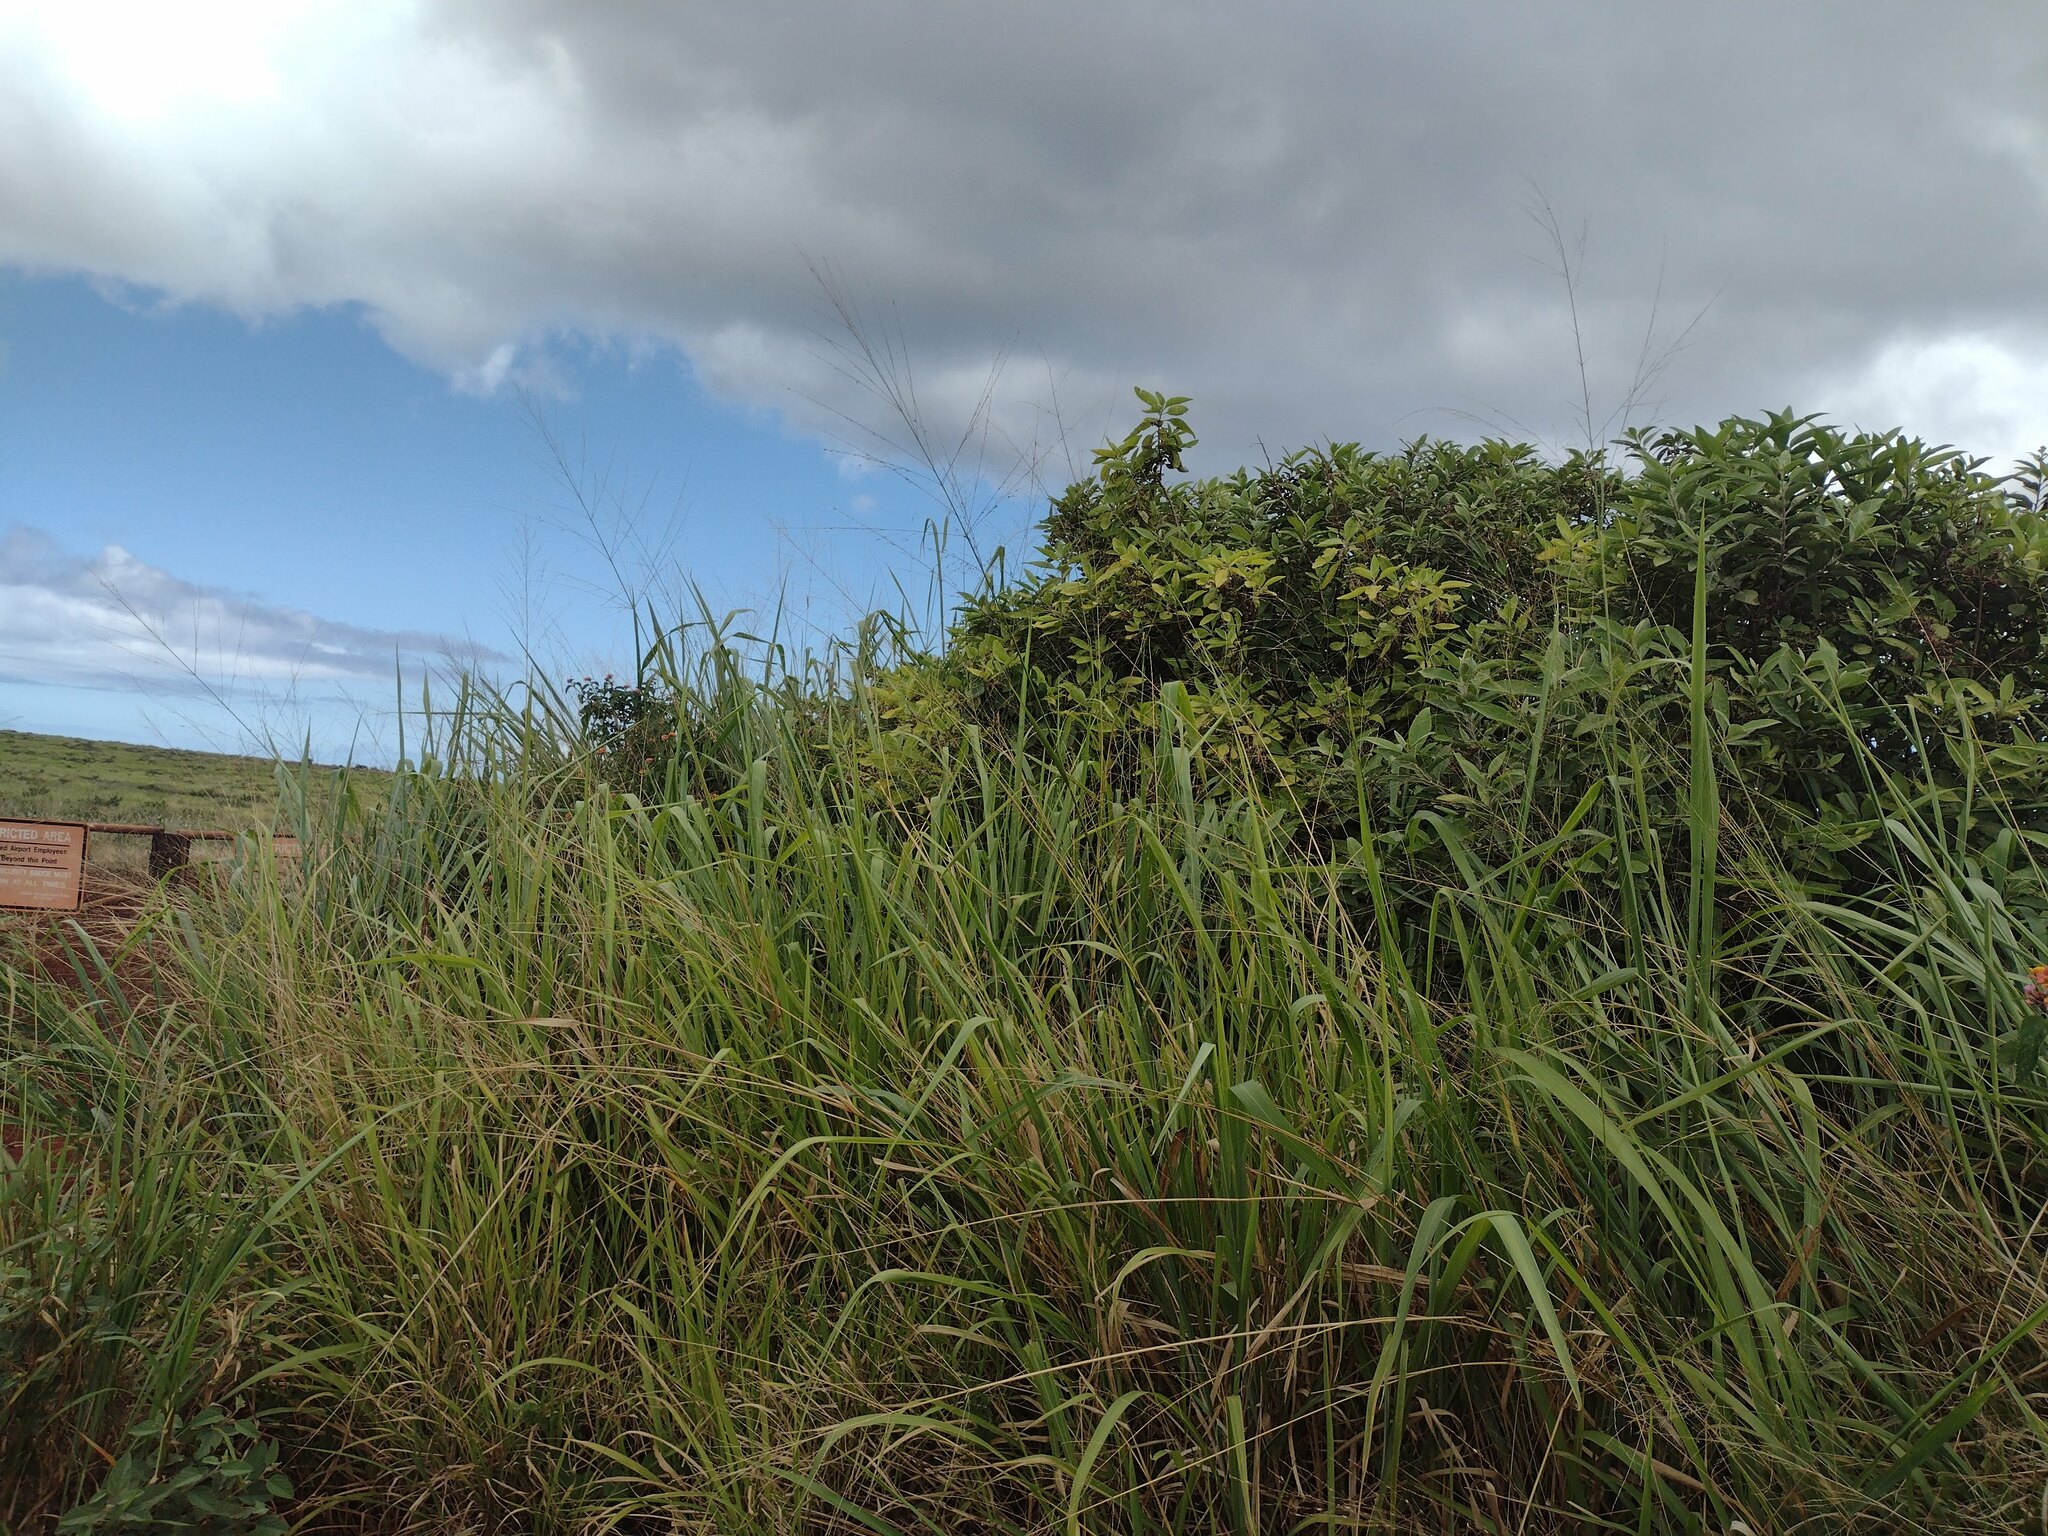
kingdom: Plantae
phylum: Tracheophyta
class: Liliopsida
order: Poales
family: Poaceae
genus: Megathyrsus
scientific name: Megathyrsus maximus
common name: Guineagrass
